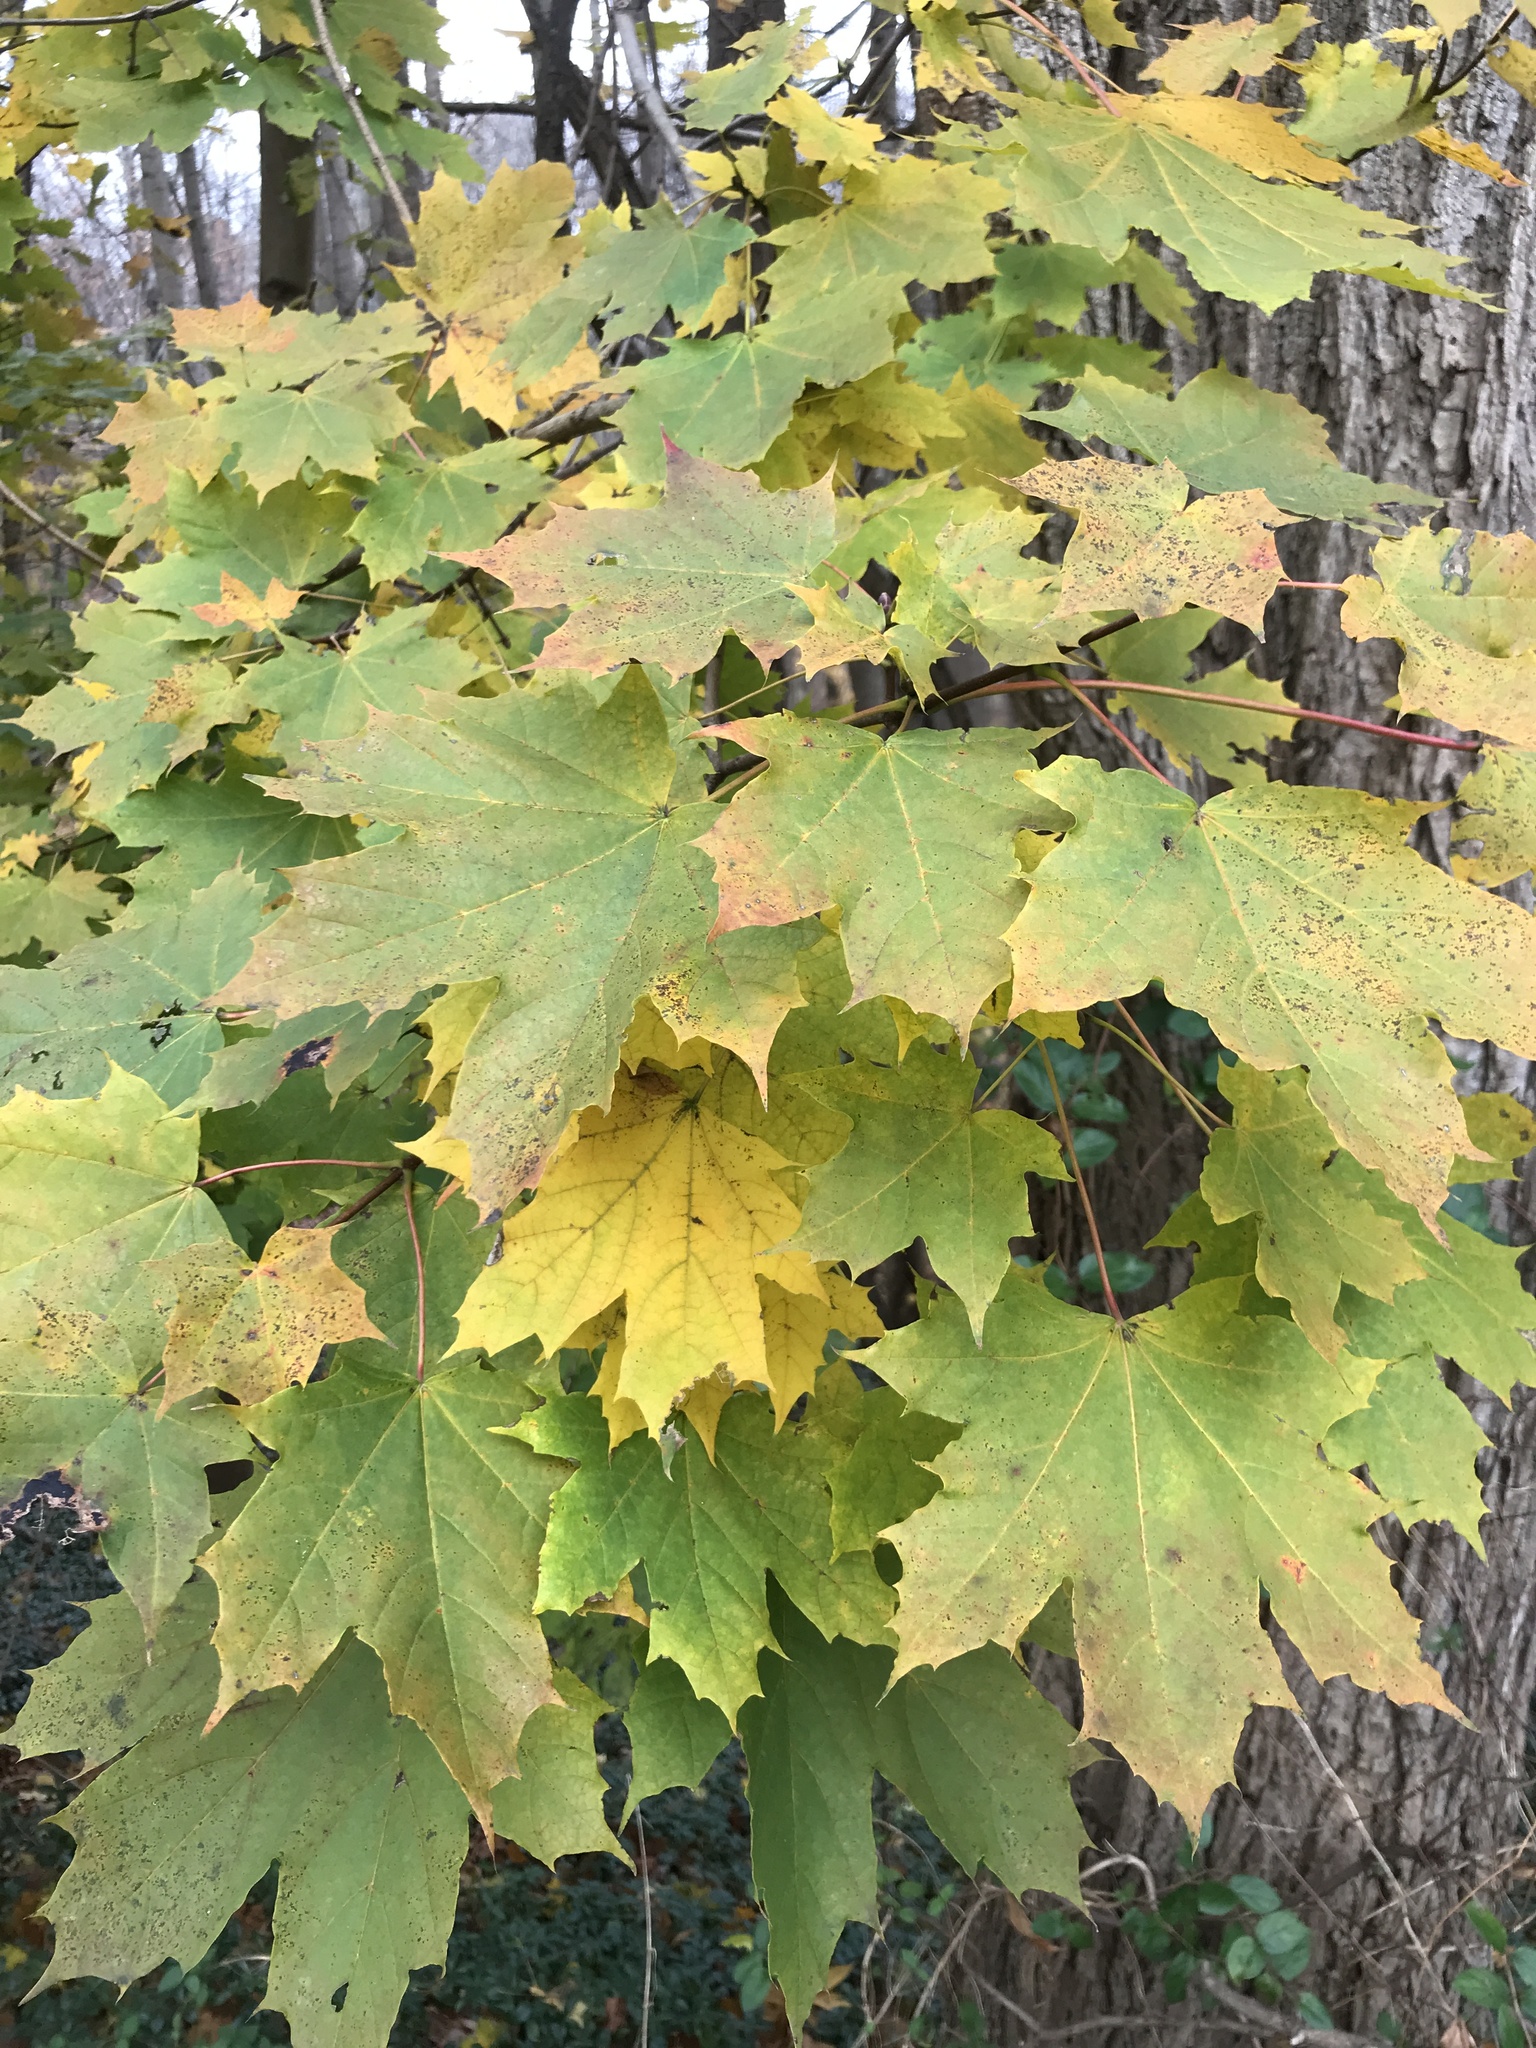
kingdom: Plantae
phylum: Tracheophyta
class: Magnoliopsida
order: Sapindales
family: Sapindaceae
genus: Acer
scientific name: Acer platanoides
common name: Norway maple
